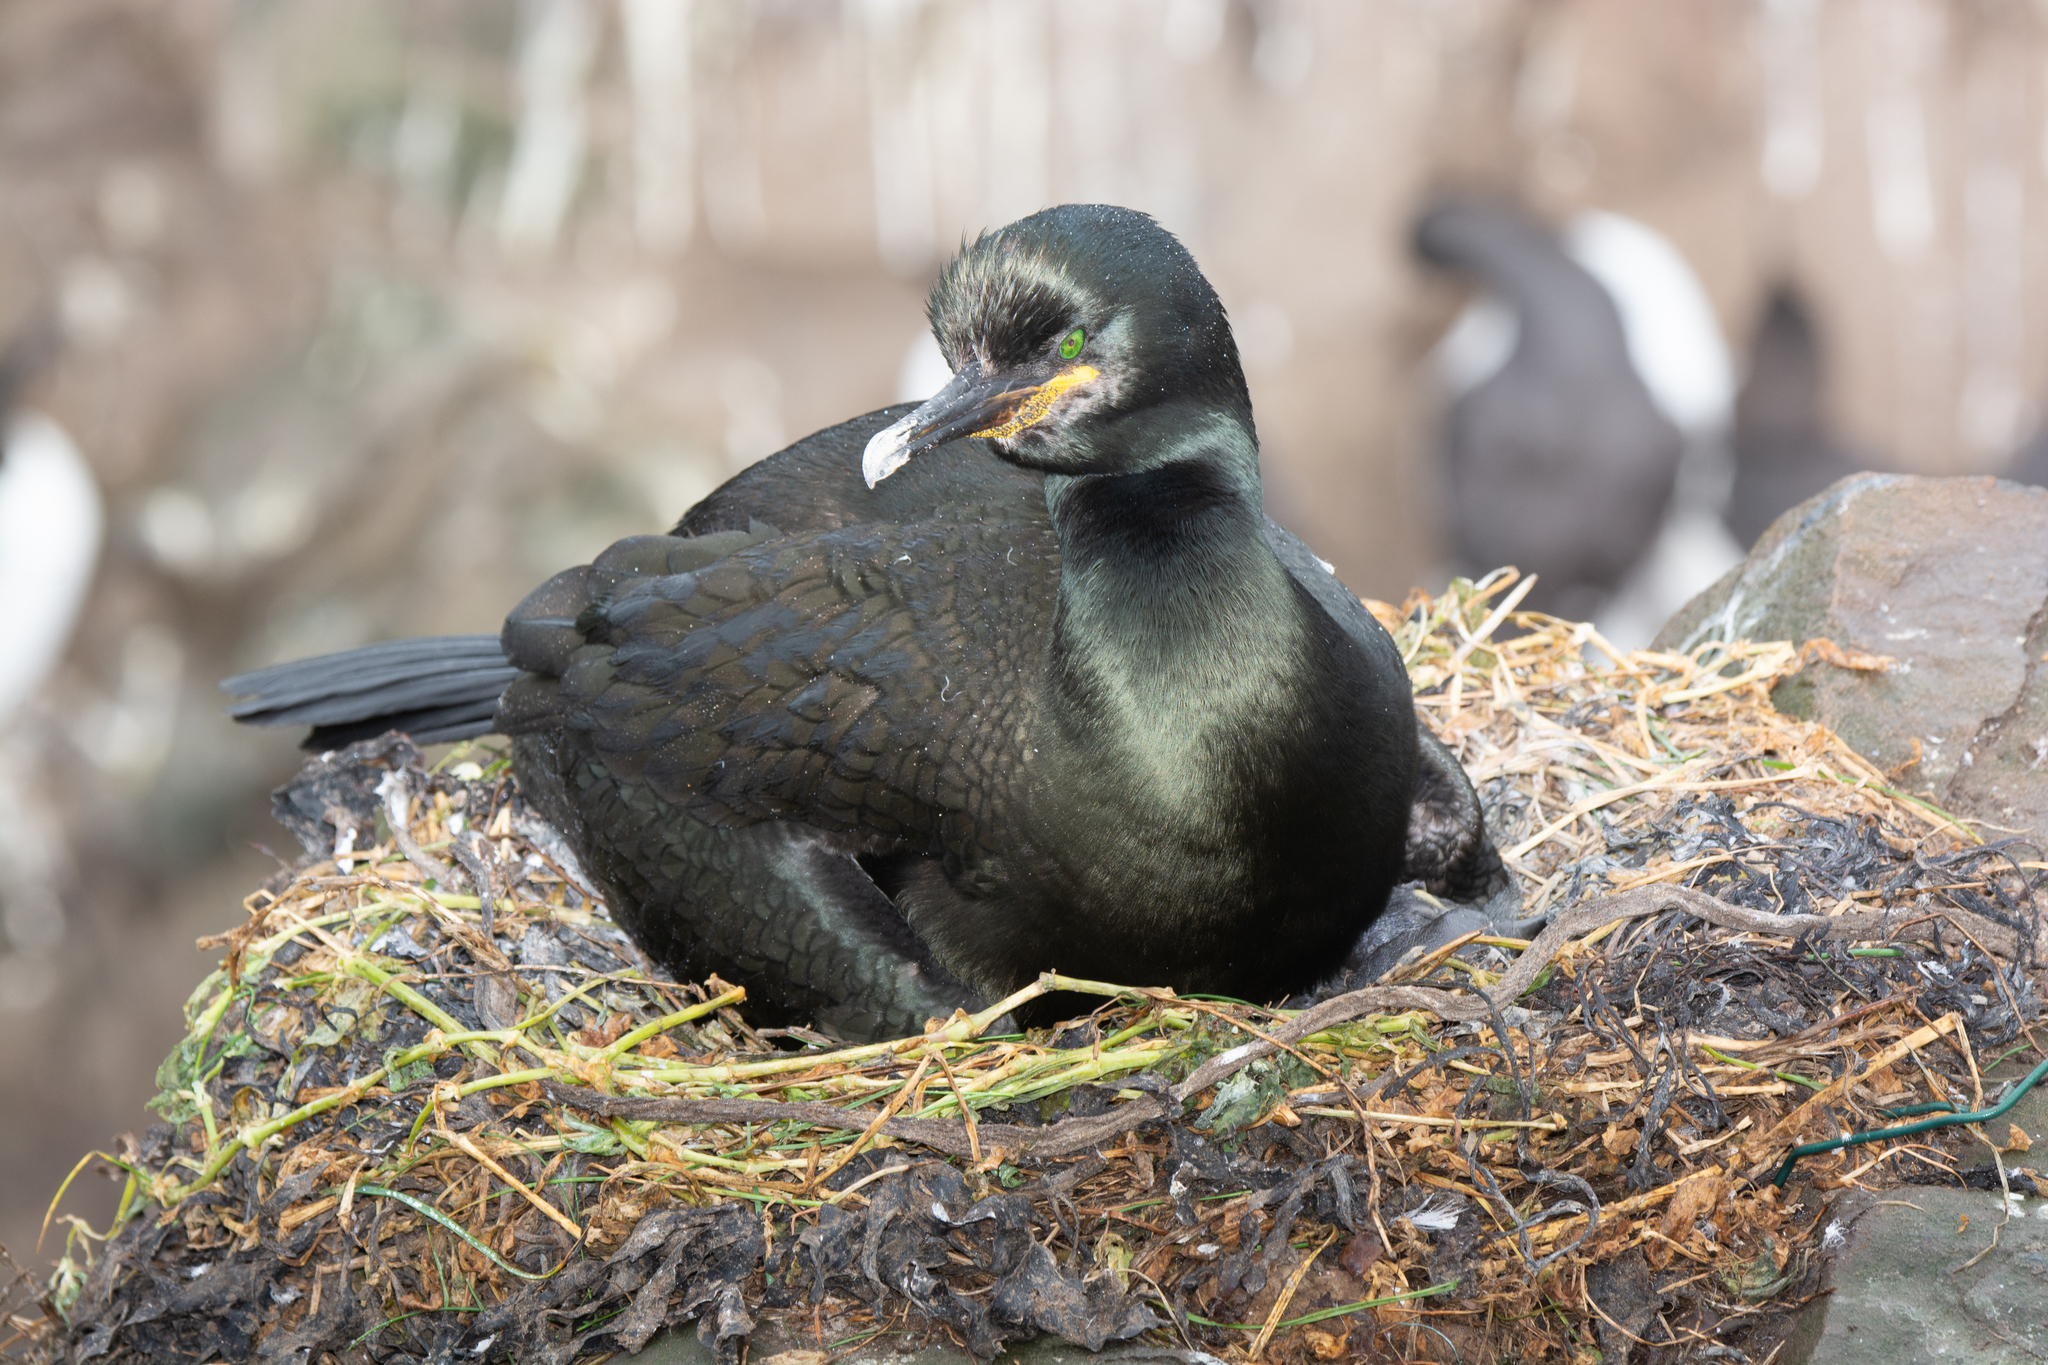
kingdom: Animalia
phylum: Chordata
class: Aves
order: Suliformes
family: Phalacrocoracidae
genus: Phalacrocorax
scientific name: Phalacrocorax aristotelis
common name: European shag
